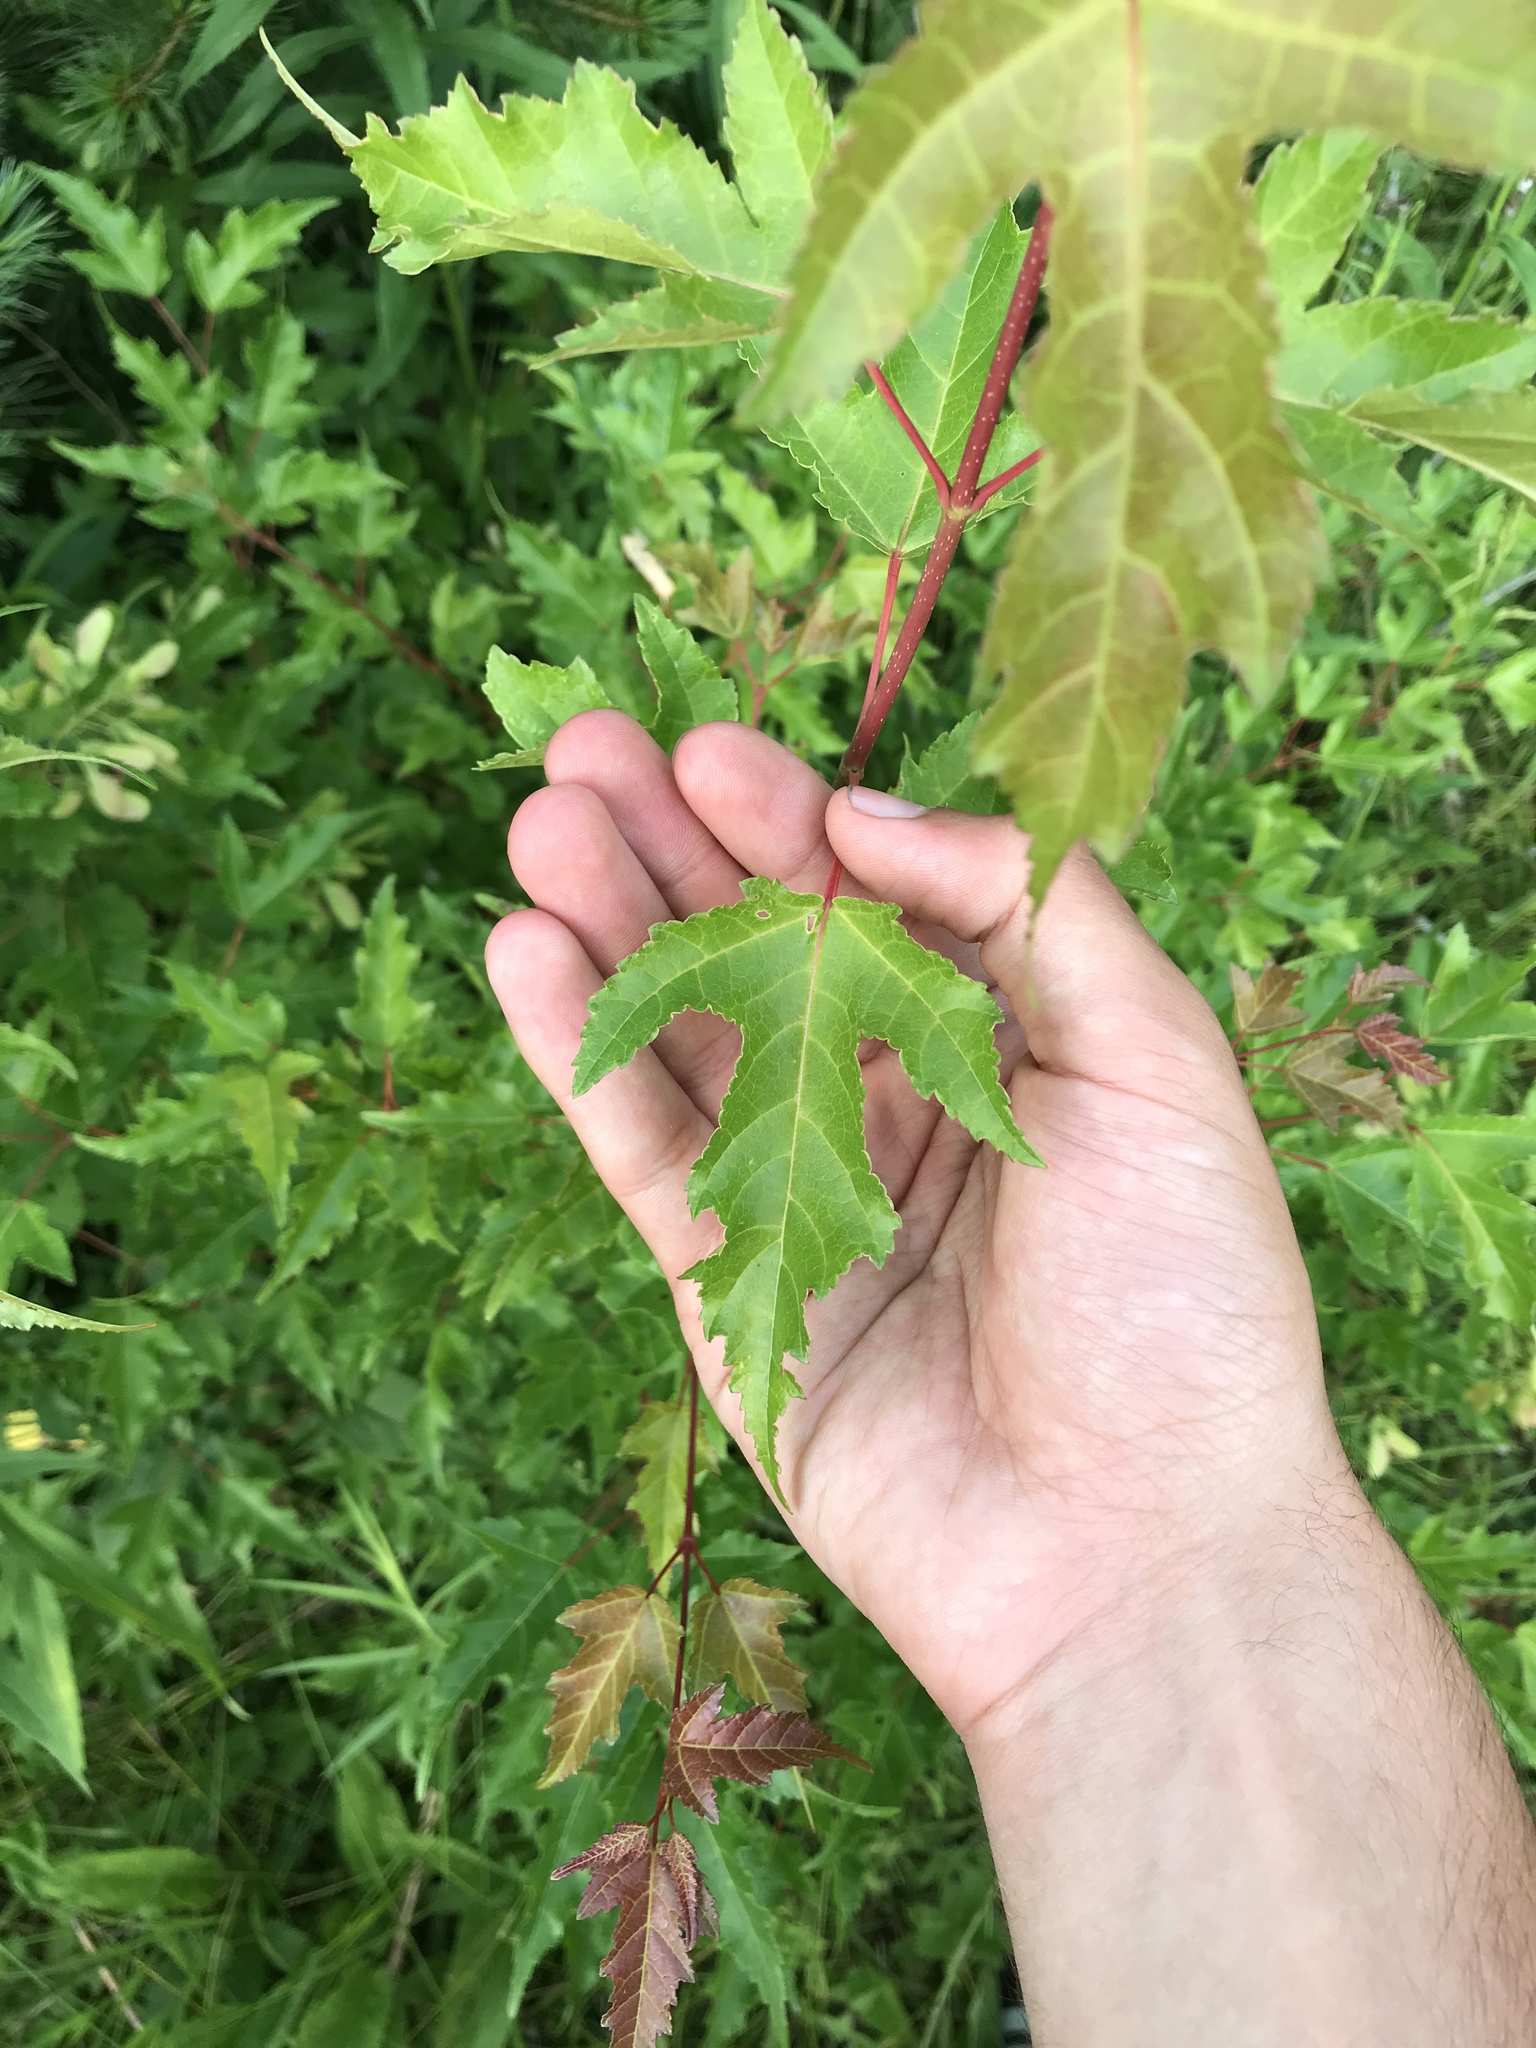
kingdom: Plantae
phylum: Tracheophyta
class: Magnoliopsida
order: Sapindales
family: Sapindaceae
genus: Acer
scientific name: Acer tataricum
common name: Tartar maple
